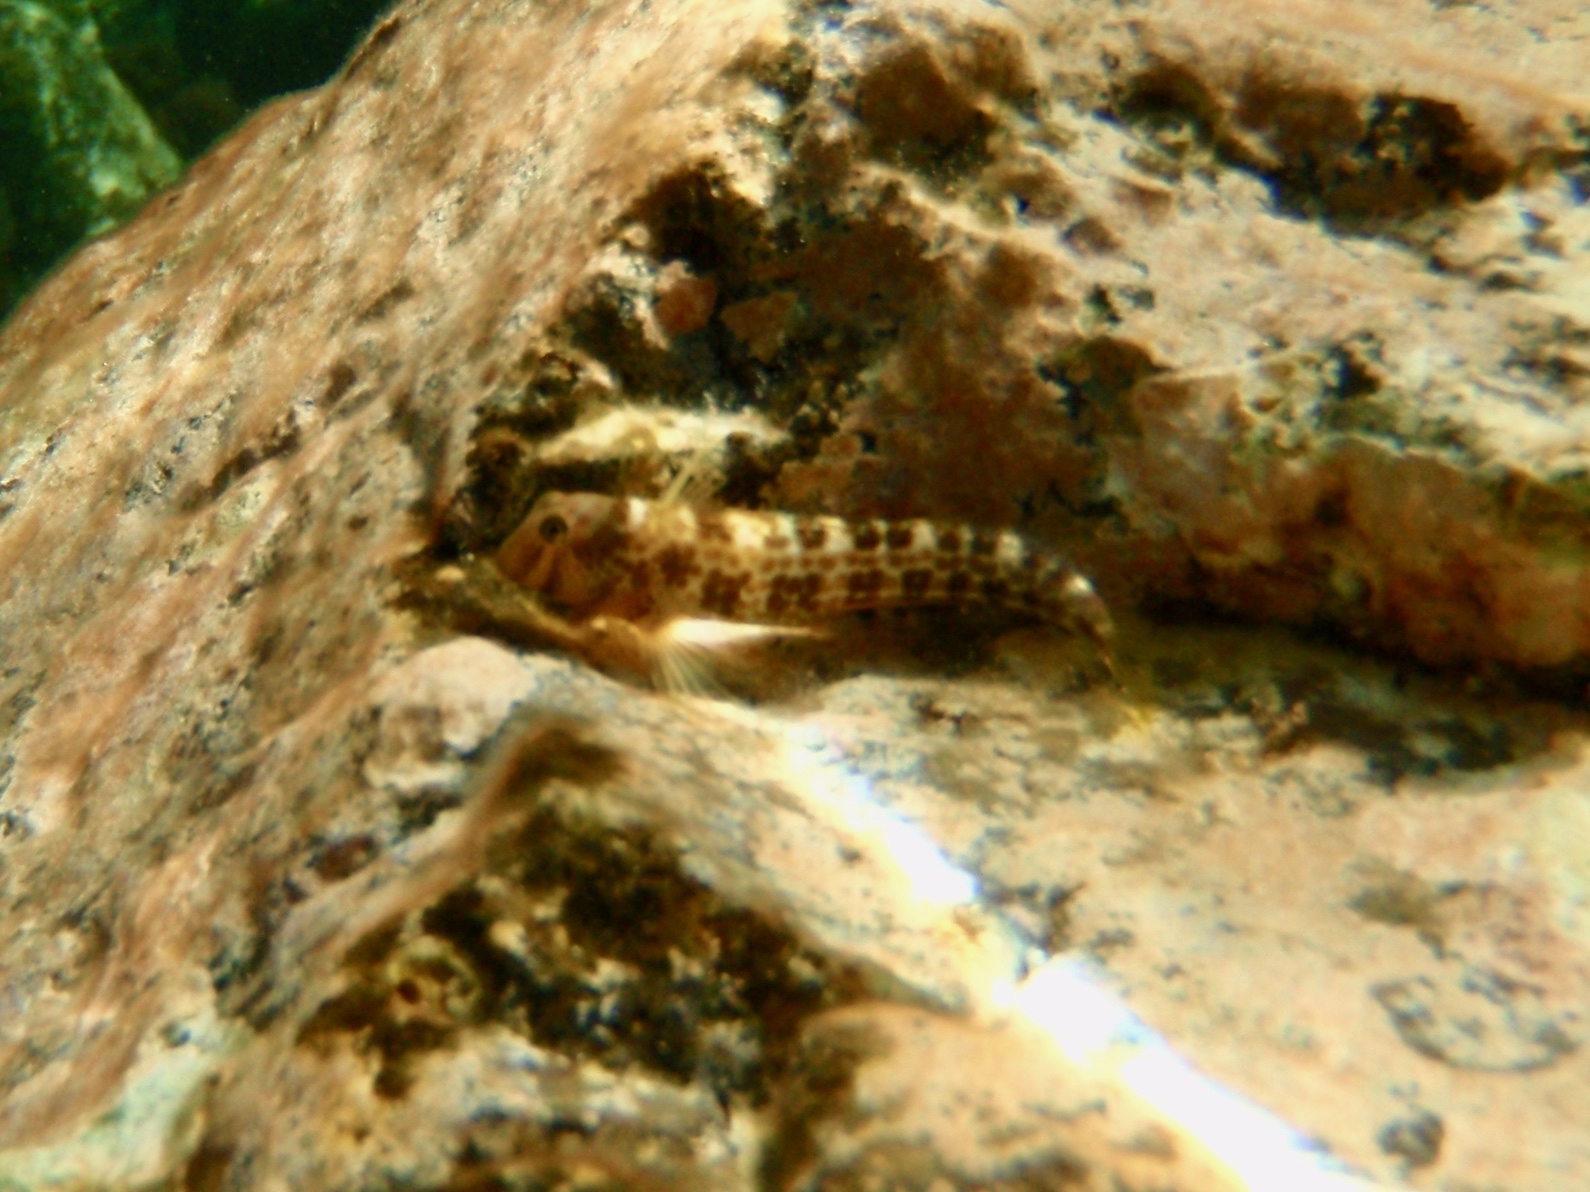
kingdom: Animalia
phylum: Chordata
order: Perciformes
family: Blenniidae
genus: Microlipophrys
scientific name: Microlipophrys canevae
